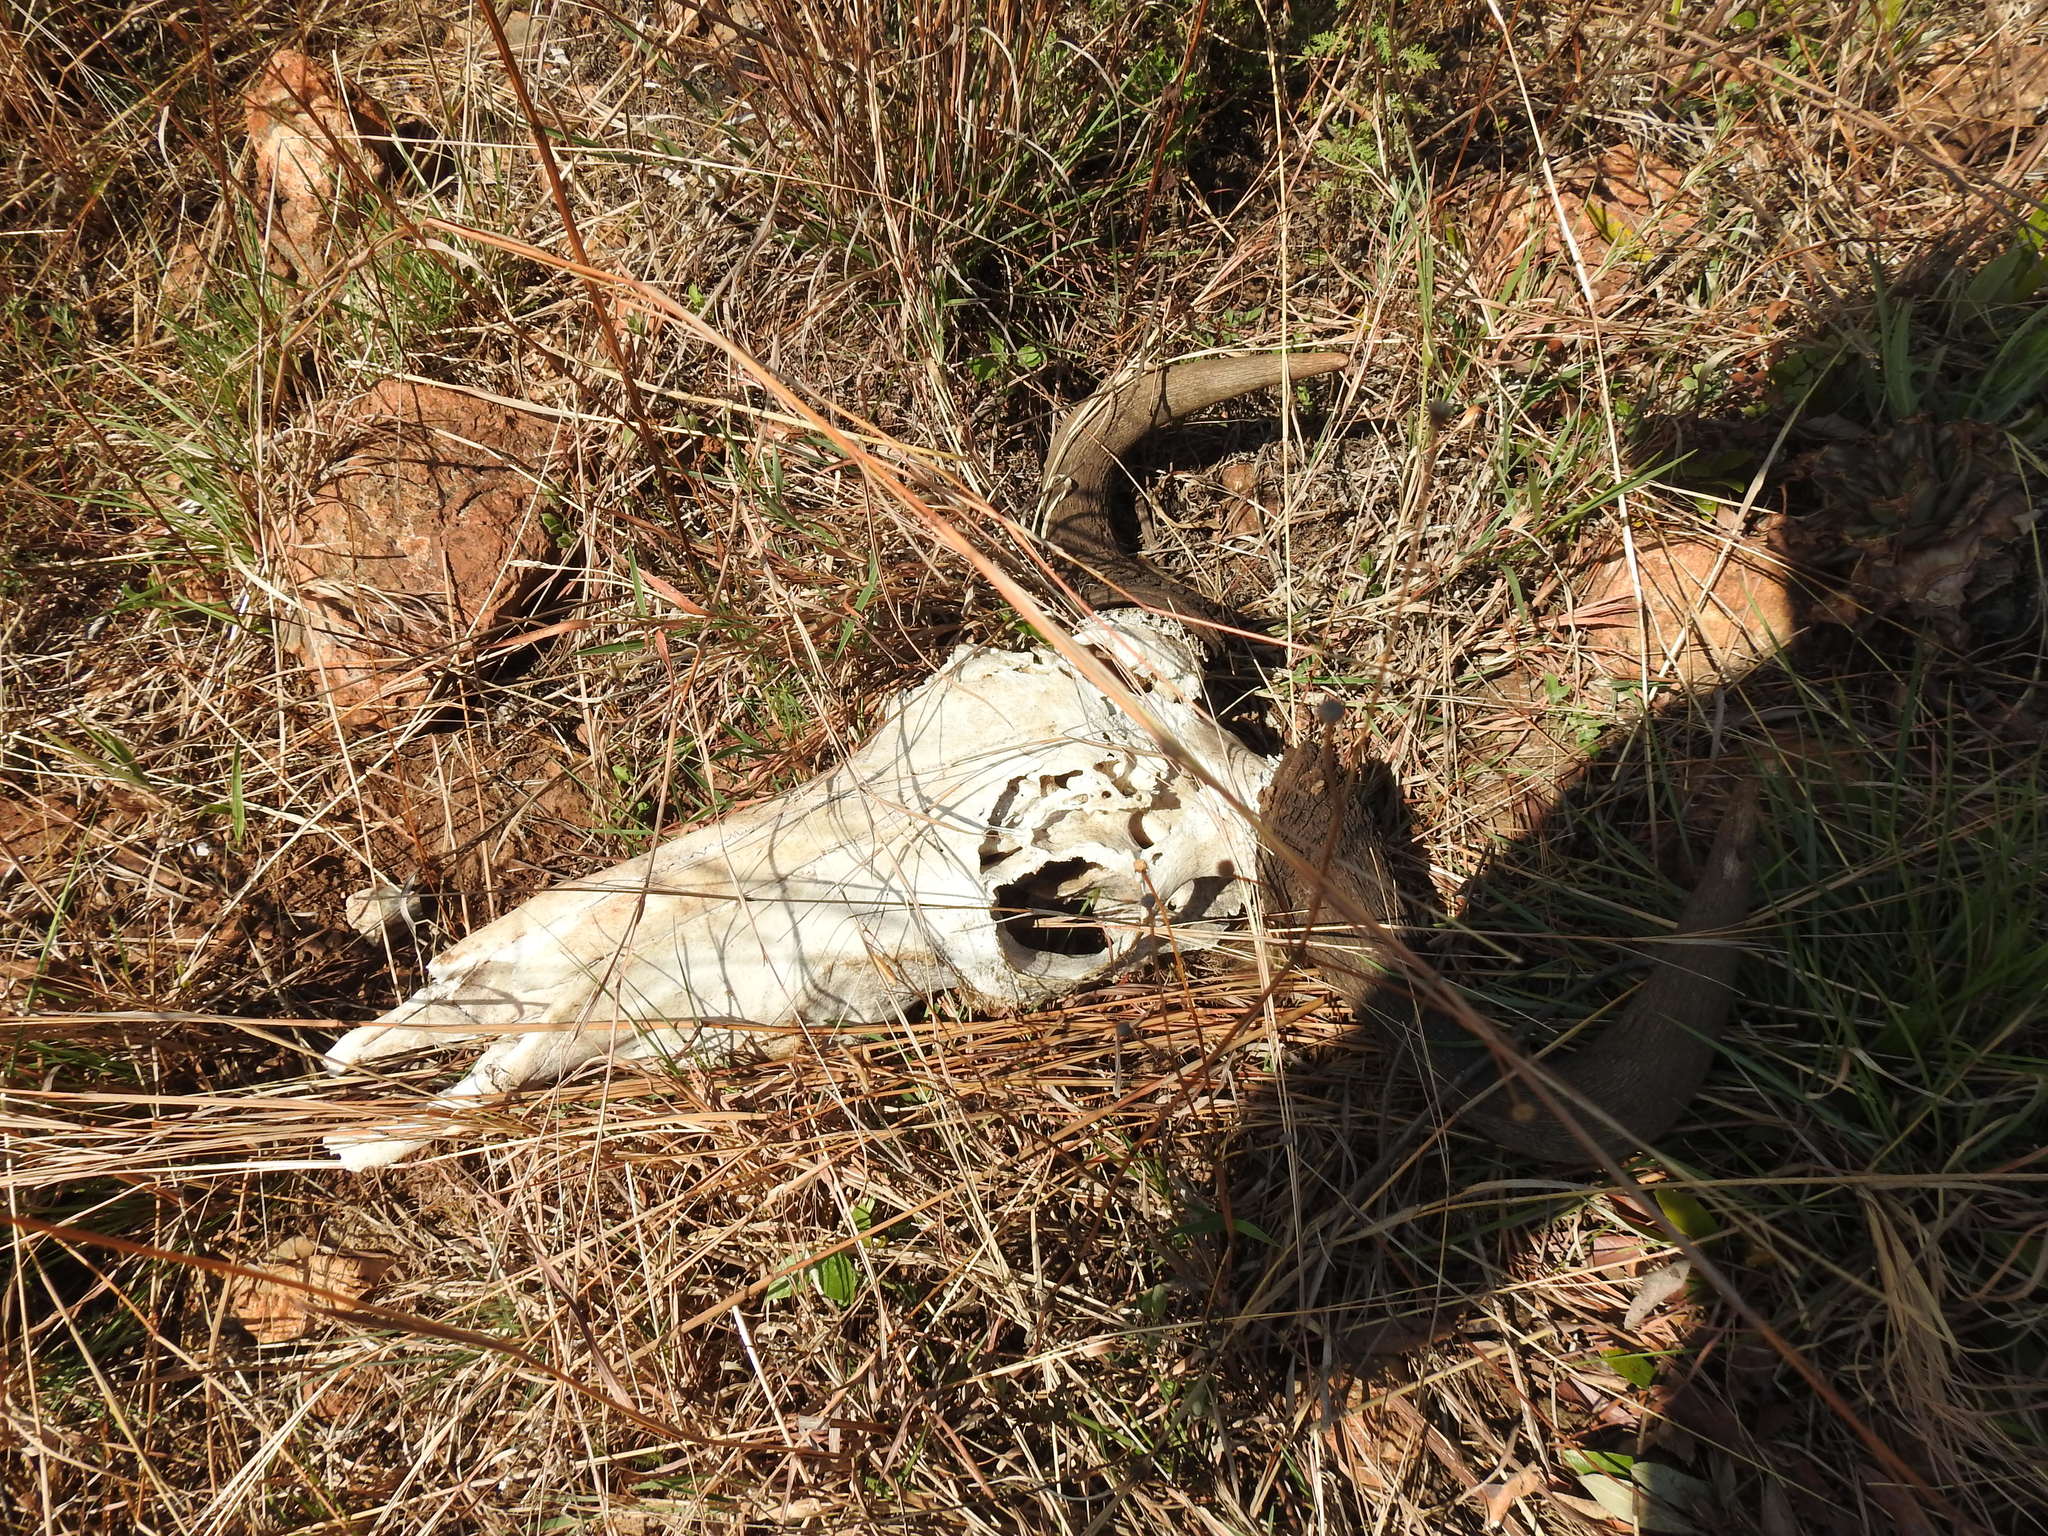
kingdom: Animalia
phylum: Chordata
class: Mammalia
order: Artiodactyla
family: Bovidae
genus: Connochaetes
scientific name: Connochaetes taurinus
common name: Blue wildebeest
